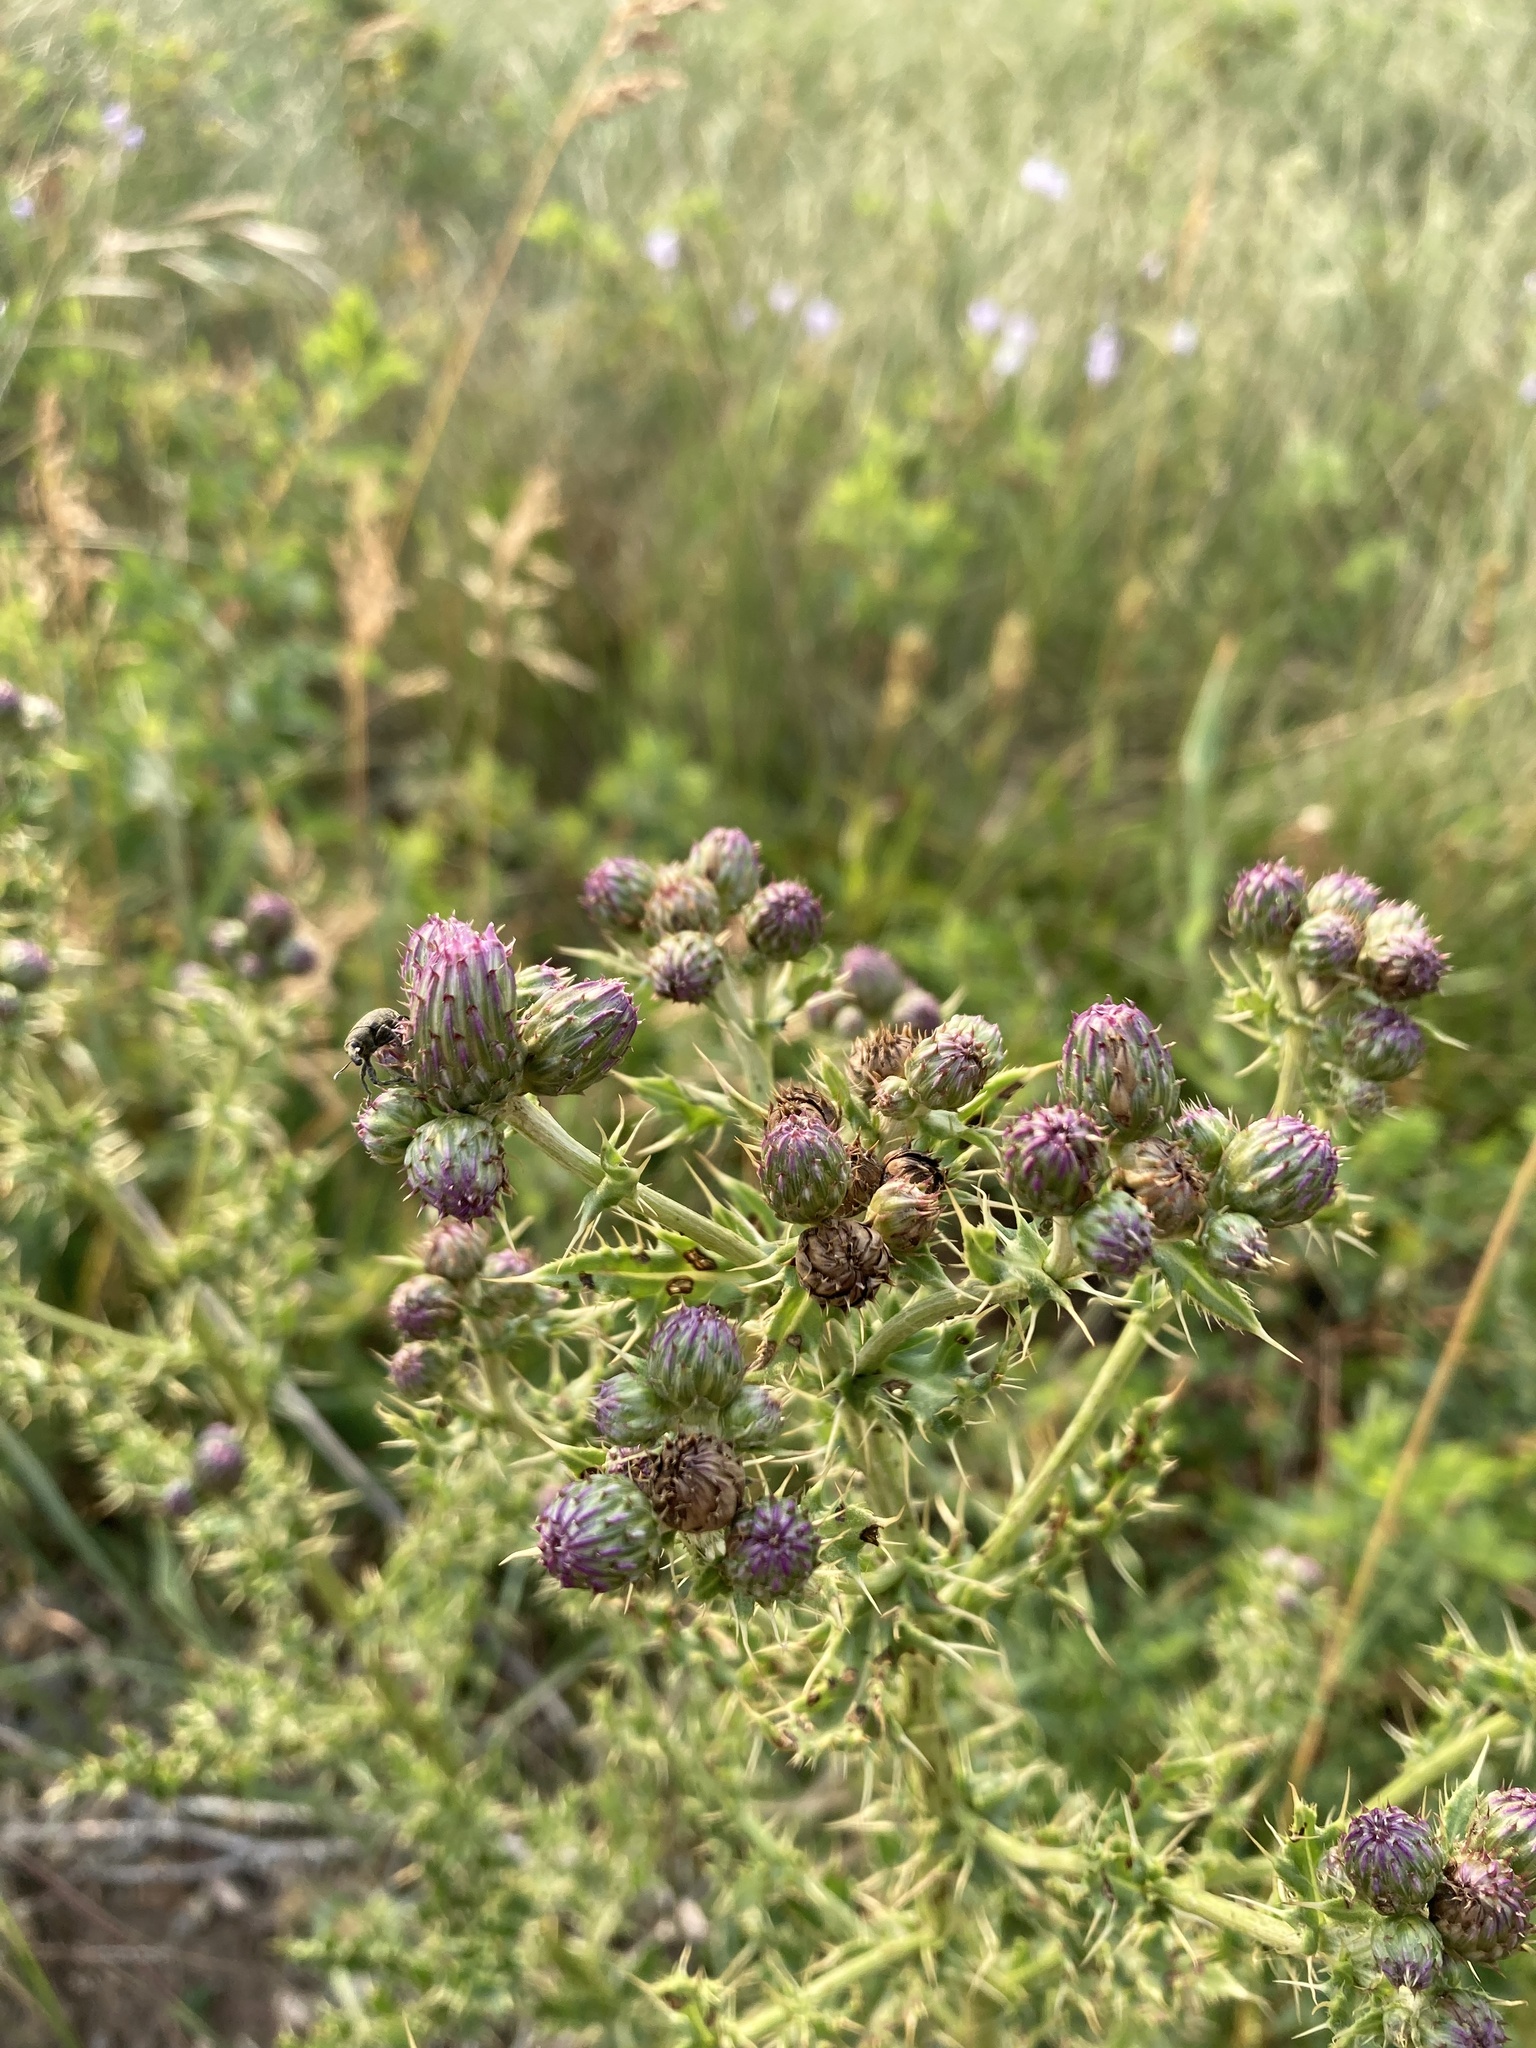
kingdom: Plantae
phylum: Tracheophyta
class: Magnoliopsida
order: Asterales
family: Asteraceae
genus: Cirsium
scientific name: Cirsium arvense
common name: Creeping thistle
